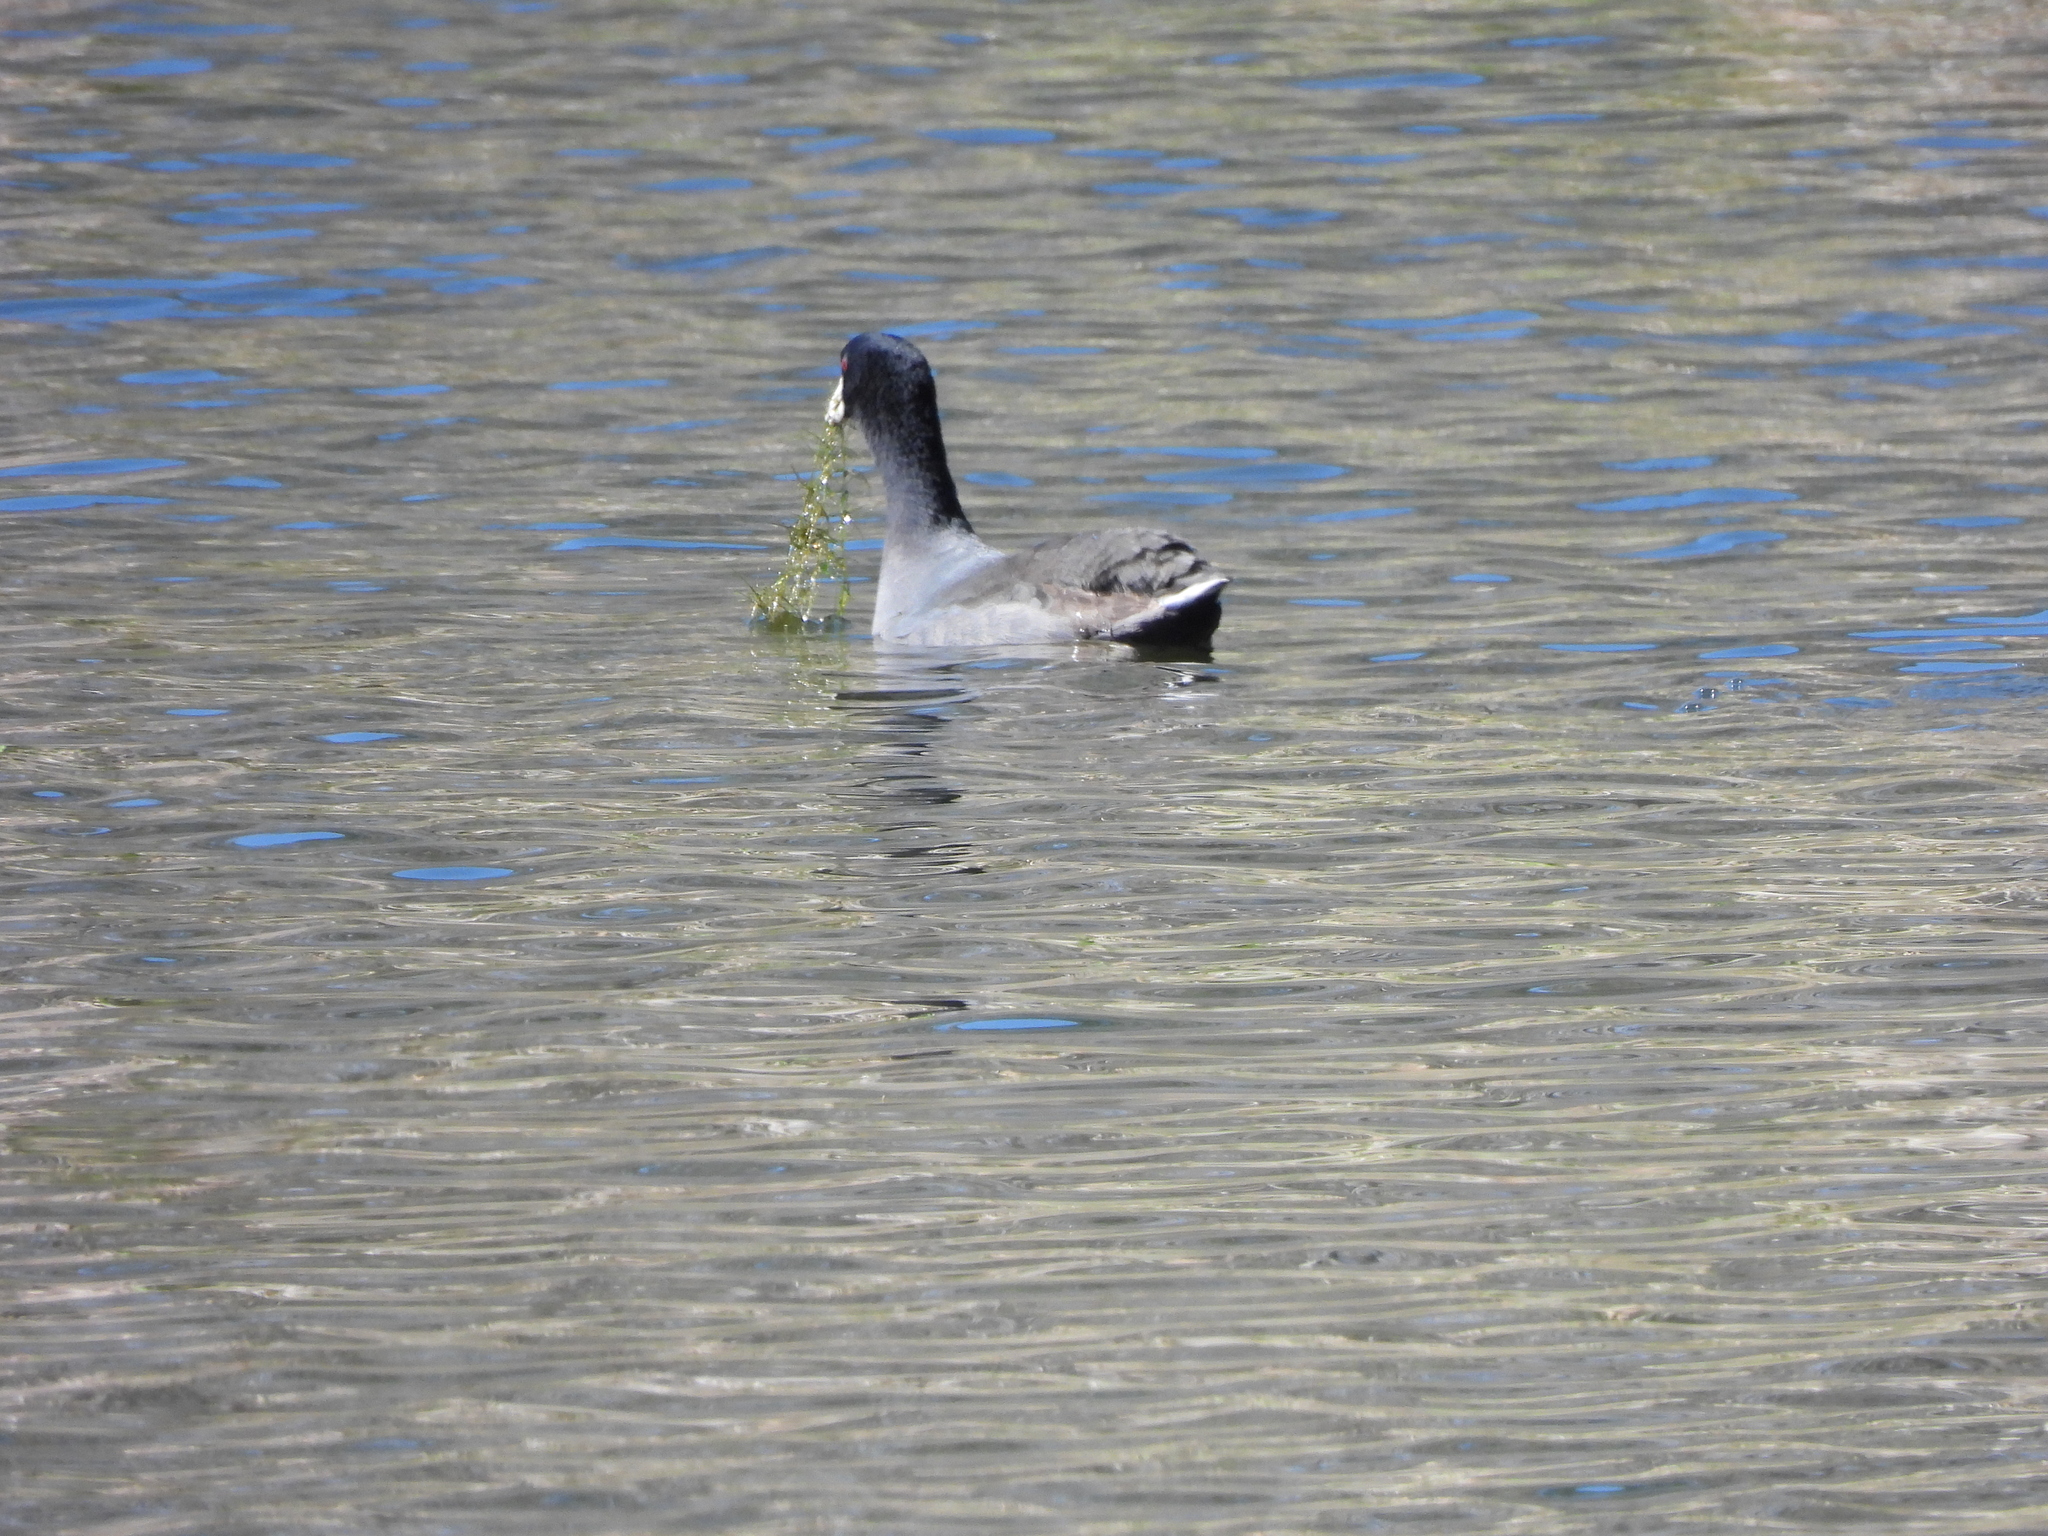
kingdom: Animalia
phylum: Chordata
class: Aves
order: Gruiformes
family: Rallidae
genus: Fulica
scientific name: Fulica americana
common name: American coot
